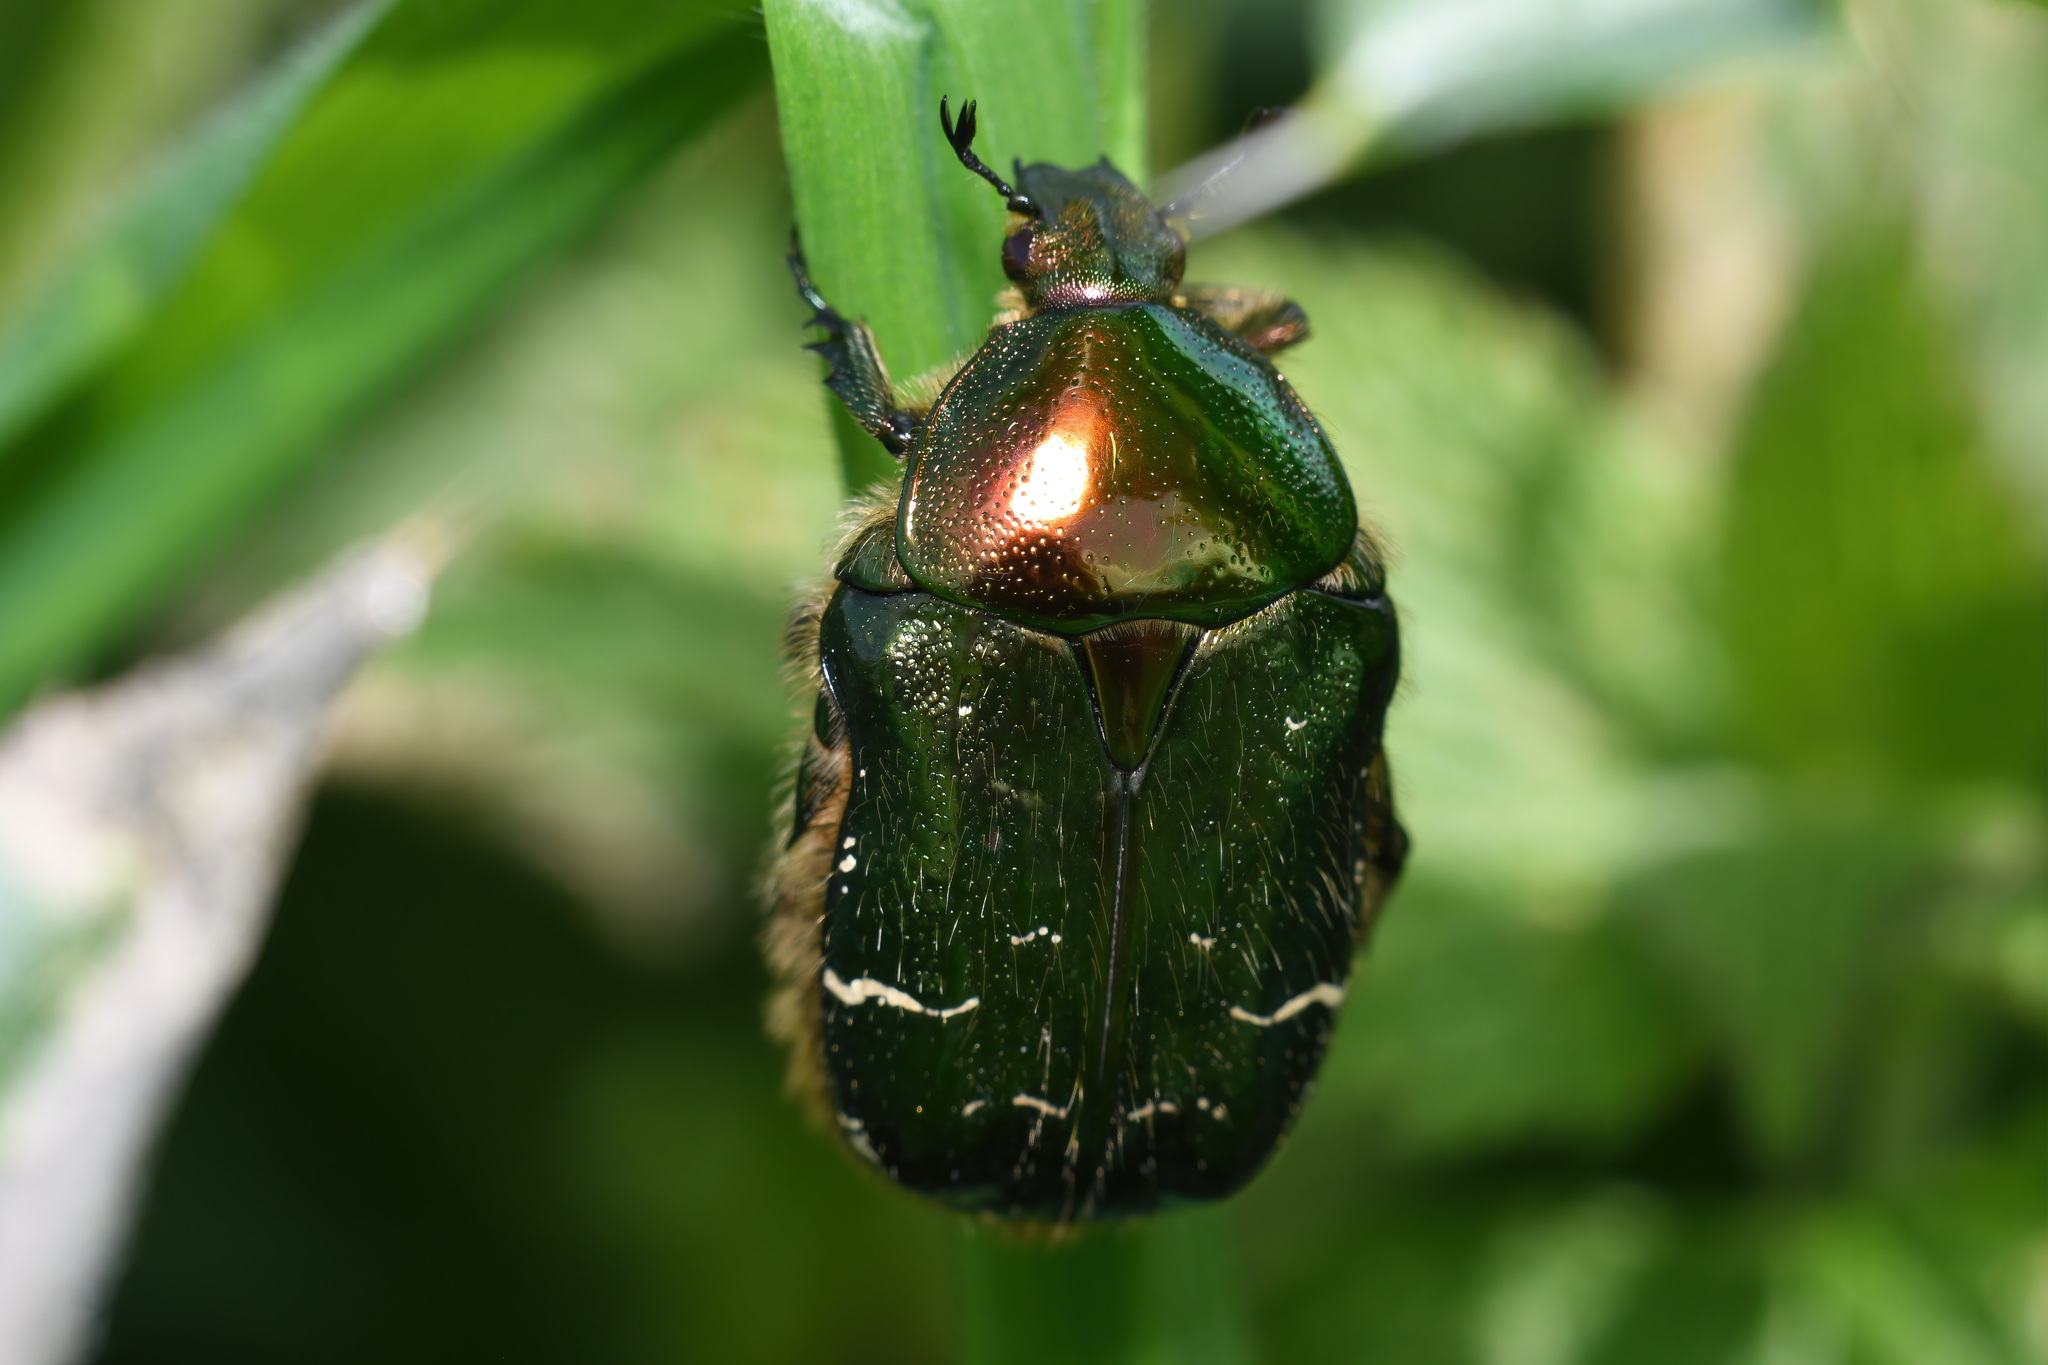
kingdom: Animalia
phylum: Arthropoda
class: Insecta
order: Coleoptera
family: Scarabaeidae
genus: Cetonia
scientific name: Cetonia aurata
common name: Rose chafer
